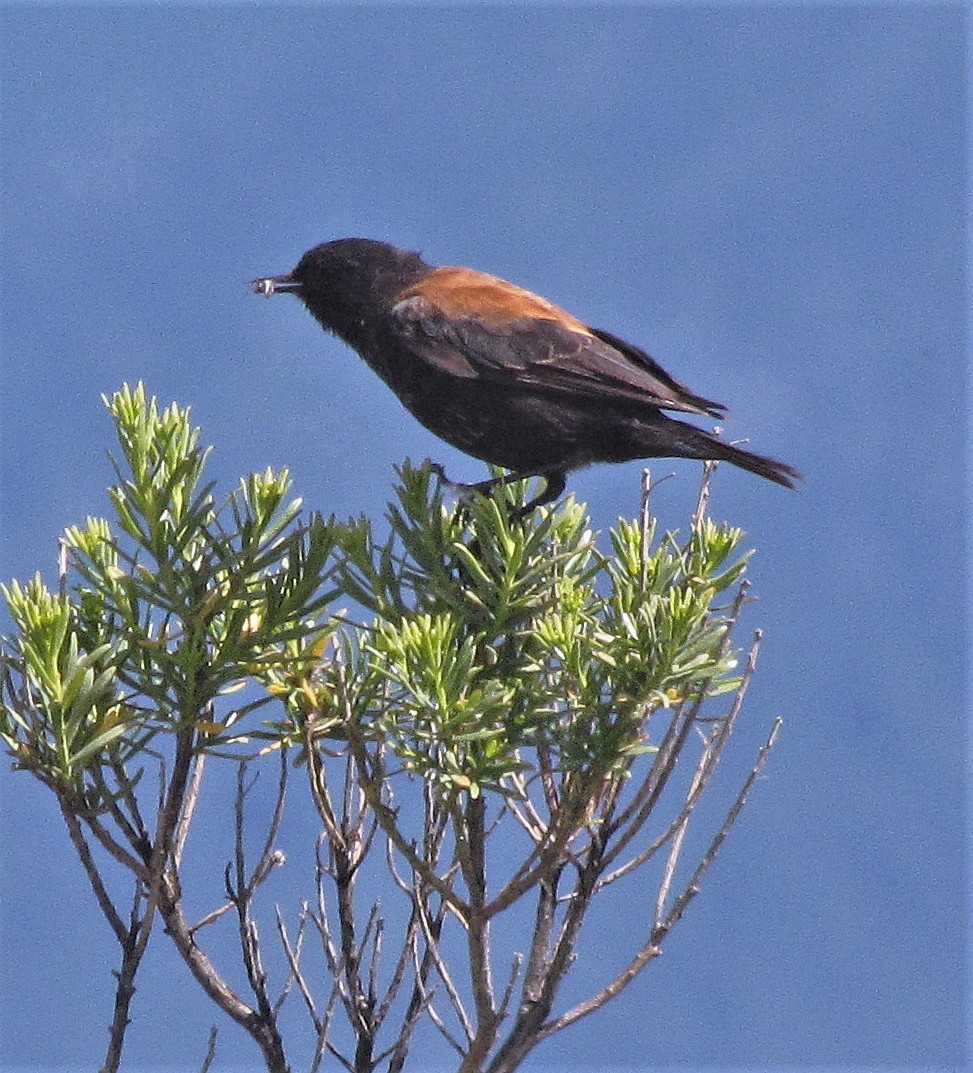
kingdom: Animalia
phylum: Chordata
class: Aves
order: Passeriformes
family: Tyrannidae
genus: Lessonia
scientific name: Lessonia rufa
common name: Austral negrito
